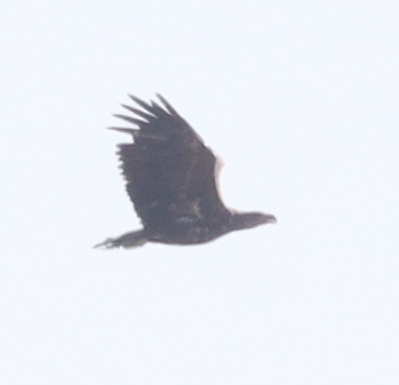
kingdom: Animalia
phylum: Chordata
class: Aves
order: Accipitriformes
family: Accipitridae
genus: Haliaeetus
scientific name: Haliaeetus albicilla
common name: White-tailed eagle
